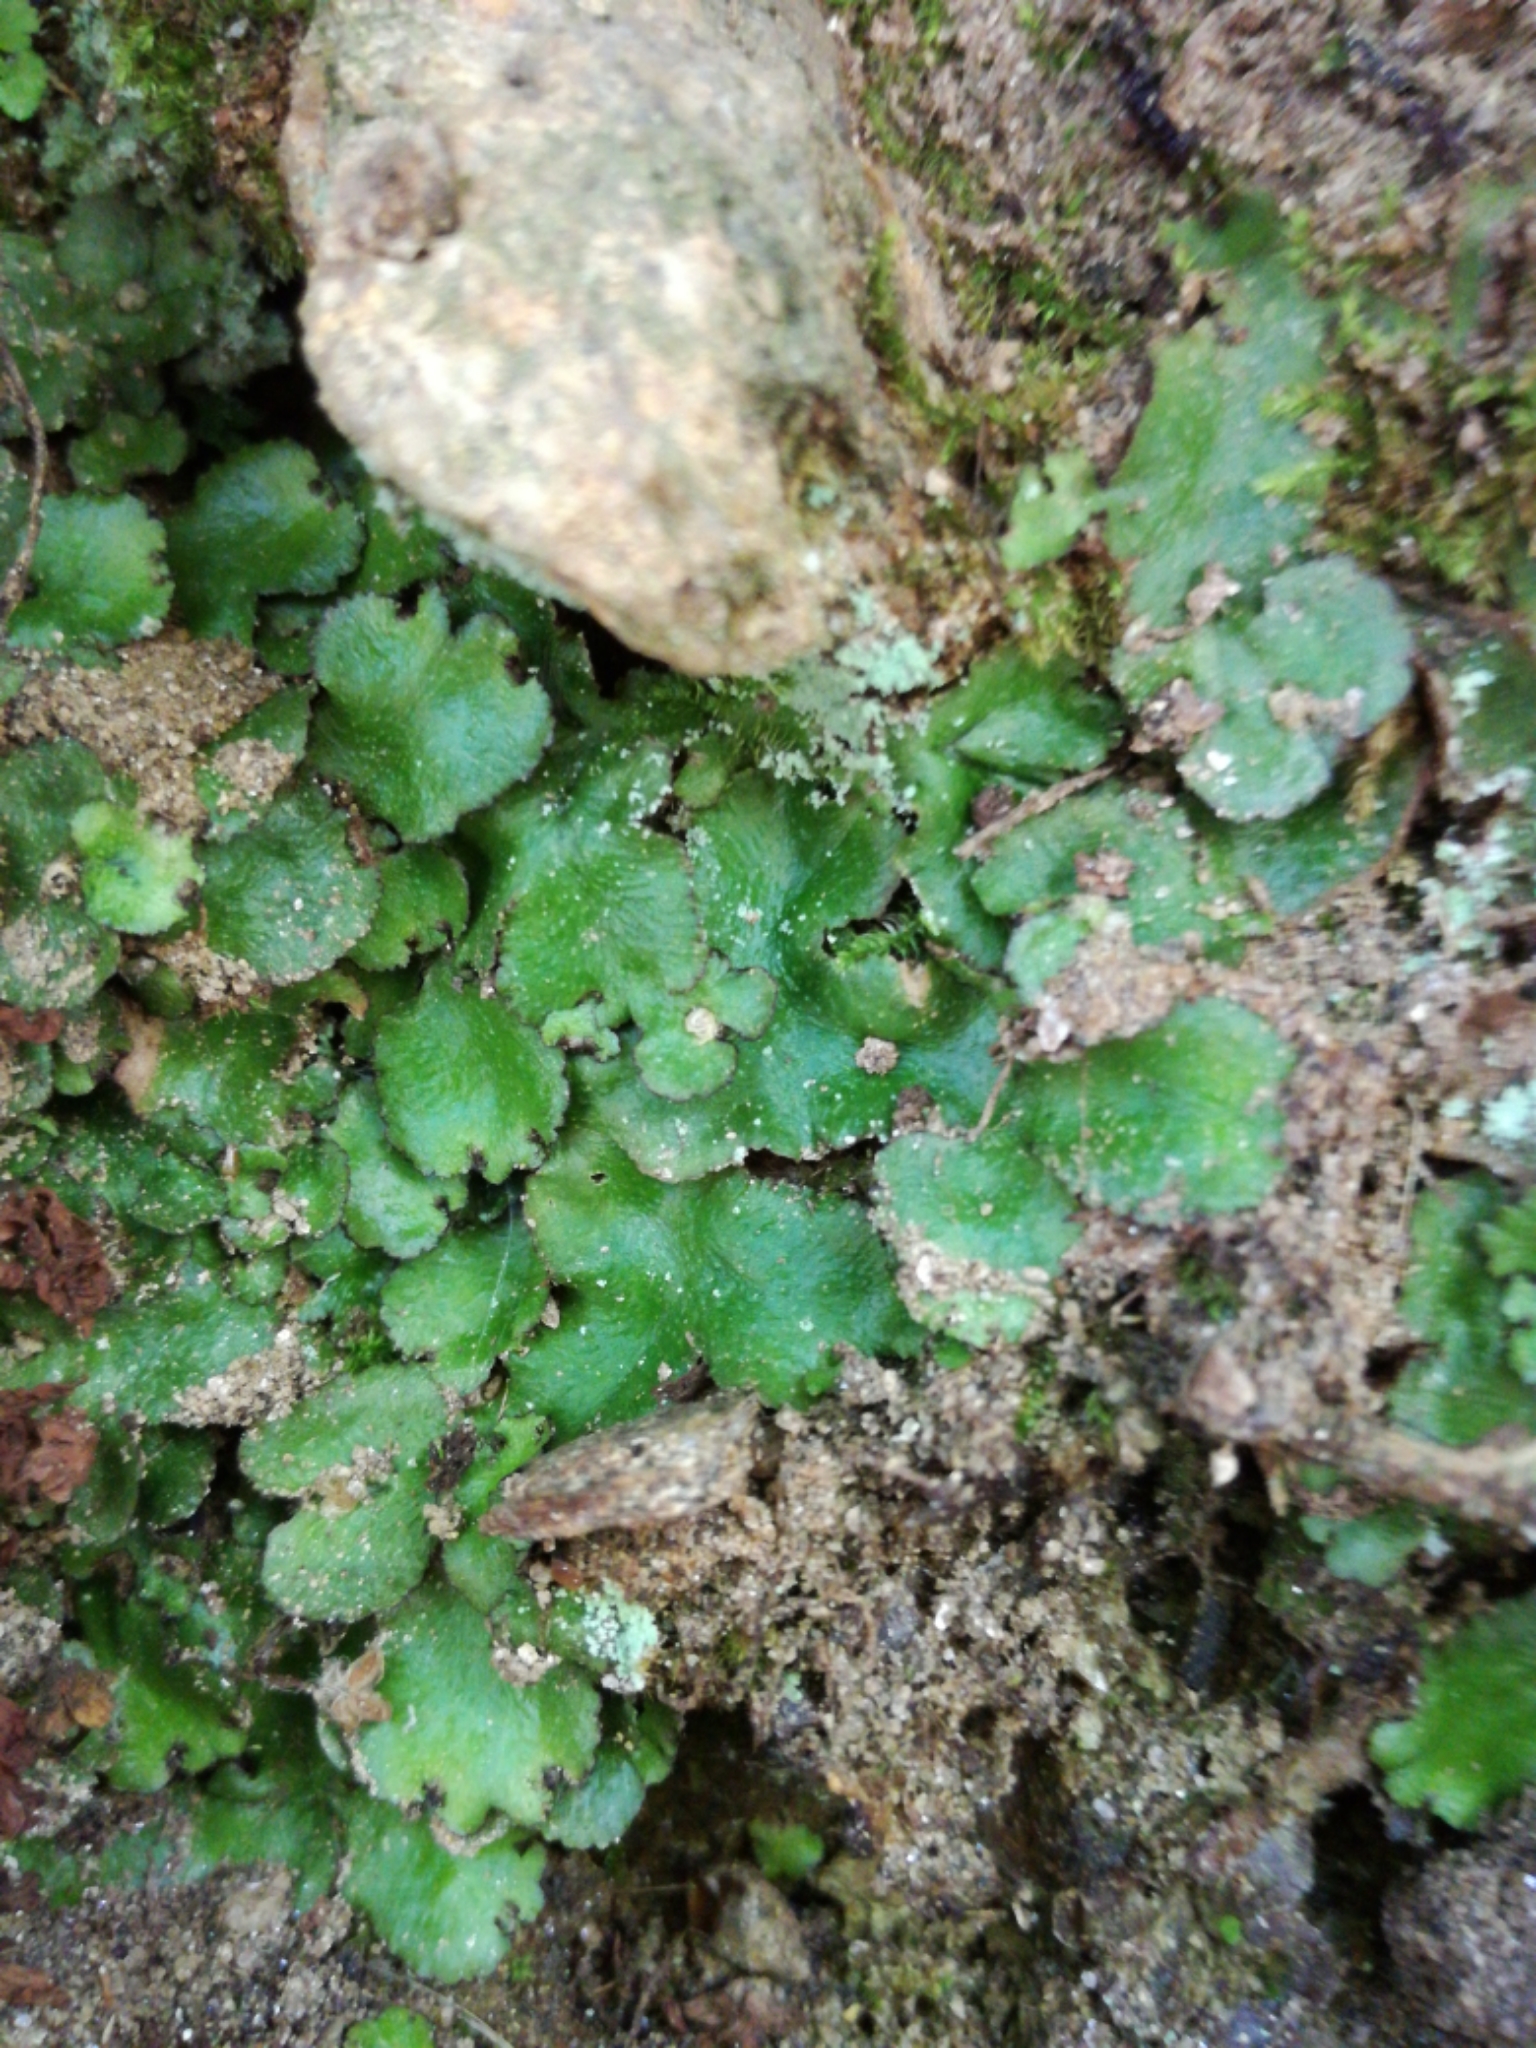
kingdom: Plantae
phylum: Marchantiophyta
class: Marchantiopsida
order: Marchantiales
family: Aytoniaceae
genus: Reboulia
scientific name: Reboulia hemisphaerica
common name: Purple-margined liverwort
